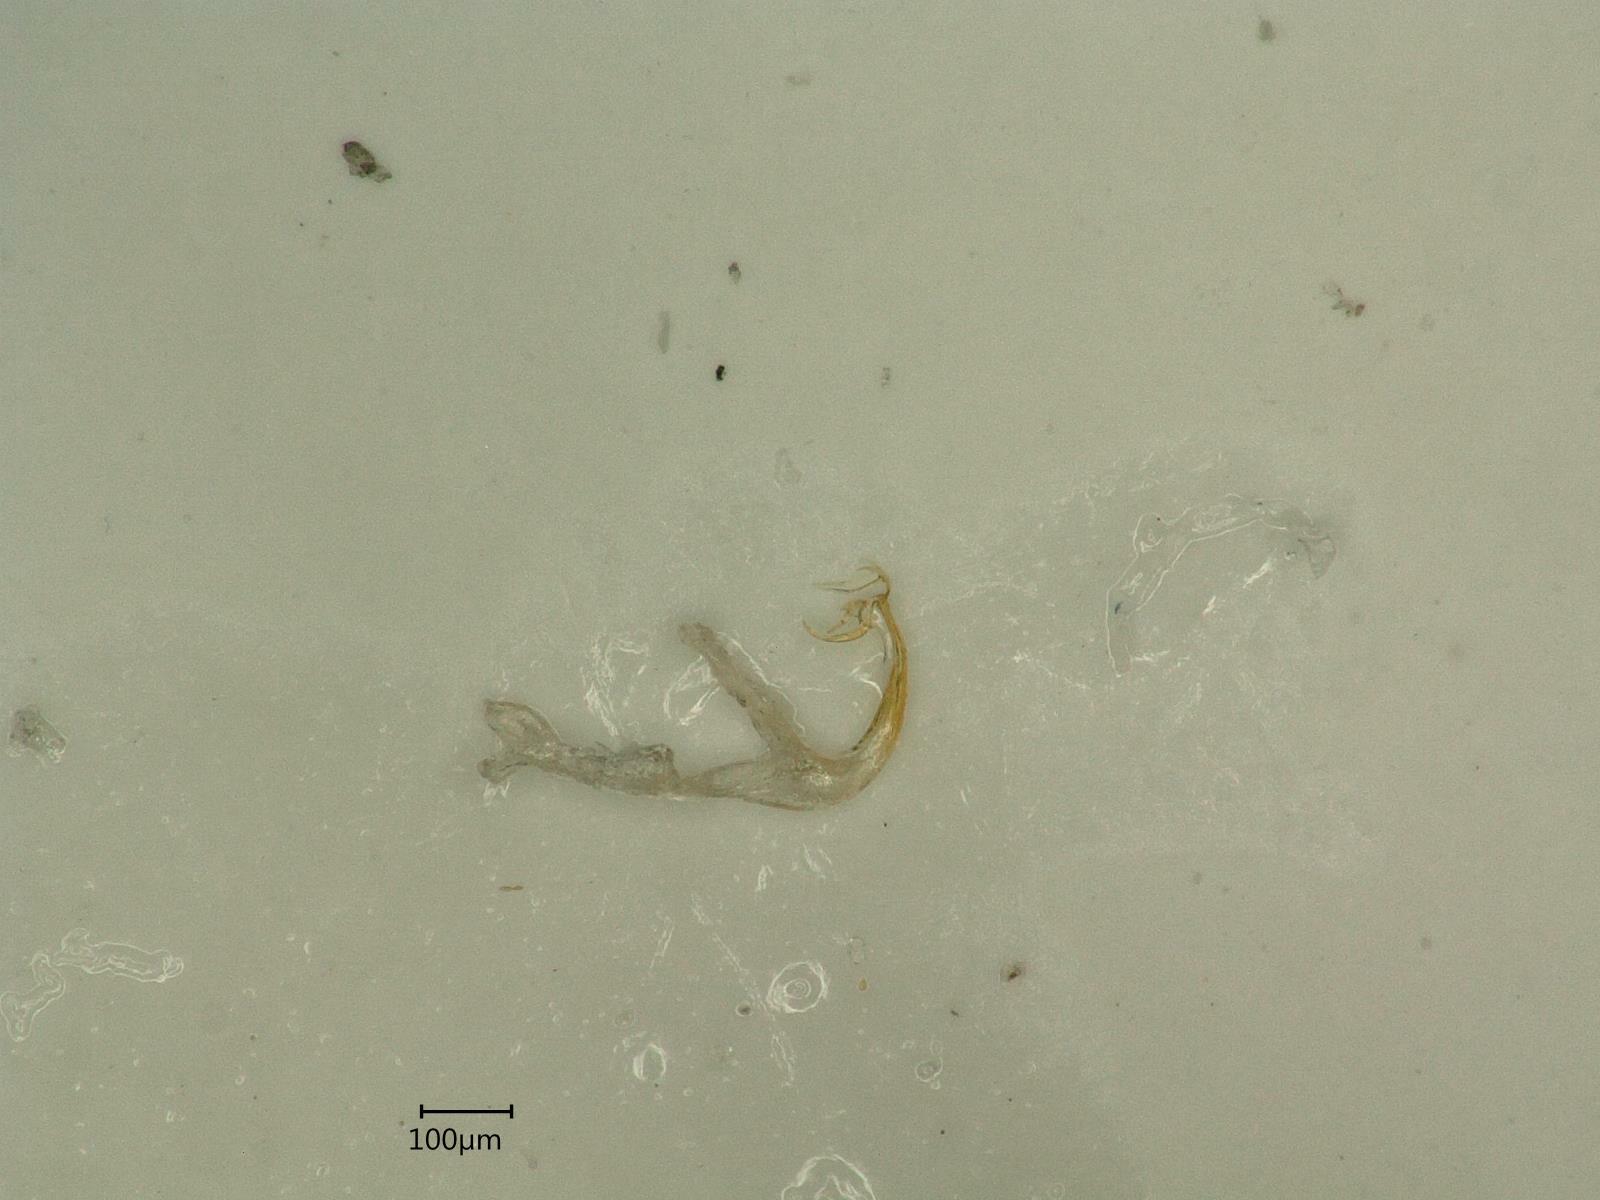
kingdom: Animalia
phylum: Arthropoda
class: Insecta
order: Hemiptera
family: Cicadellidae
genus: Edwardsiana
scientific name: Edwardsiana ulmiphagus
